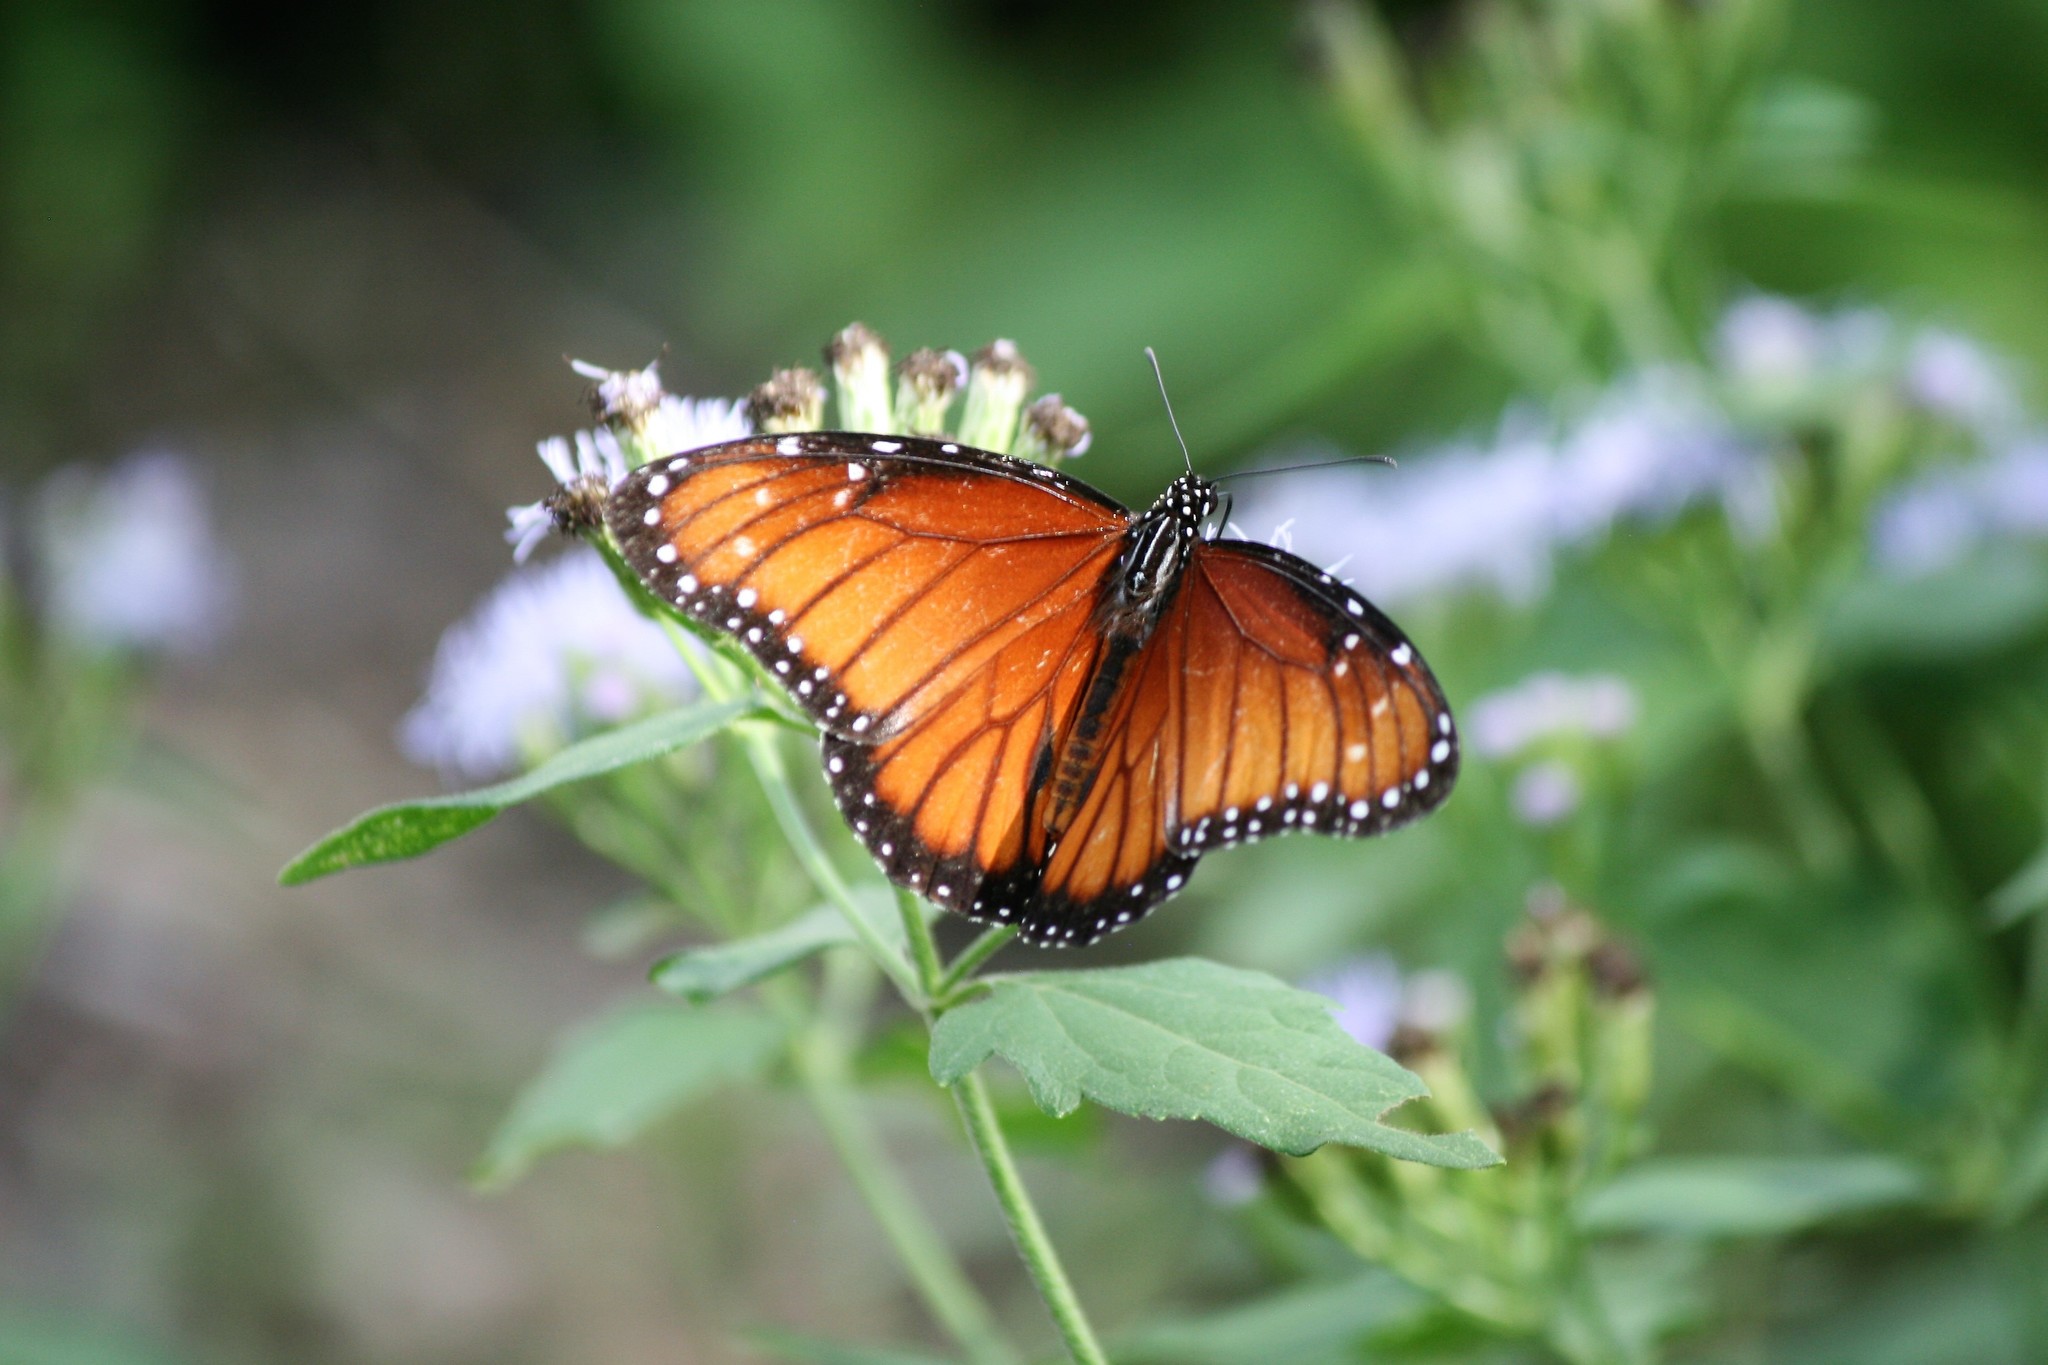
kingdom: Animalia
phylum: Arthropoda
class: Insecta
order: Lepidoptera
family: Nymphalidae
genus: Danaus
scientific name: Danaus eresimus
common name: Soldier
